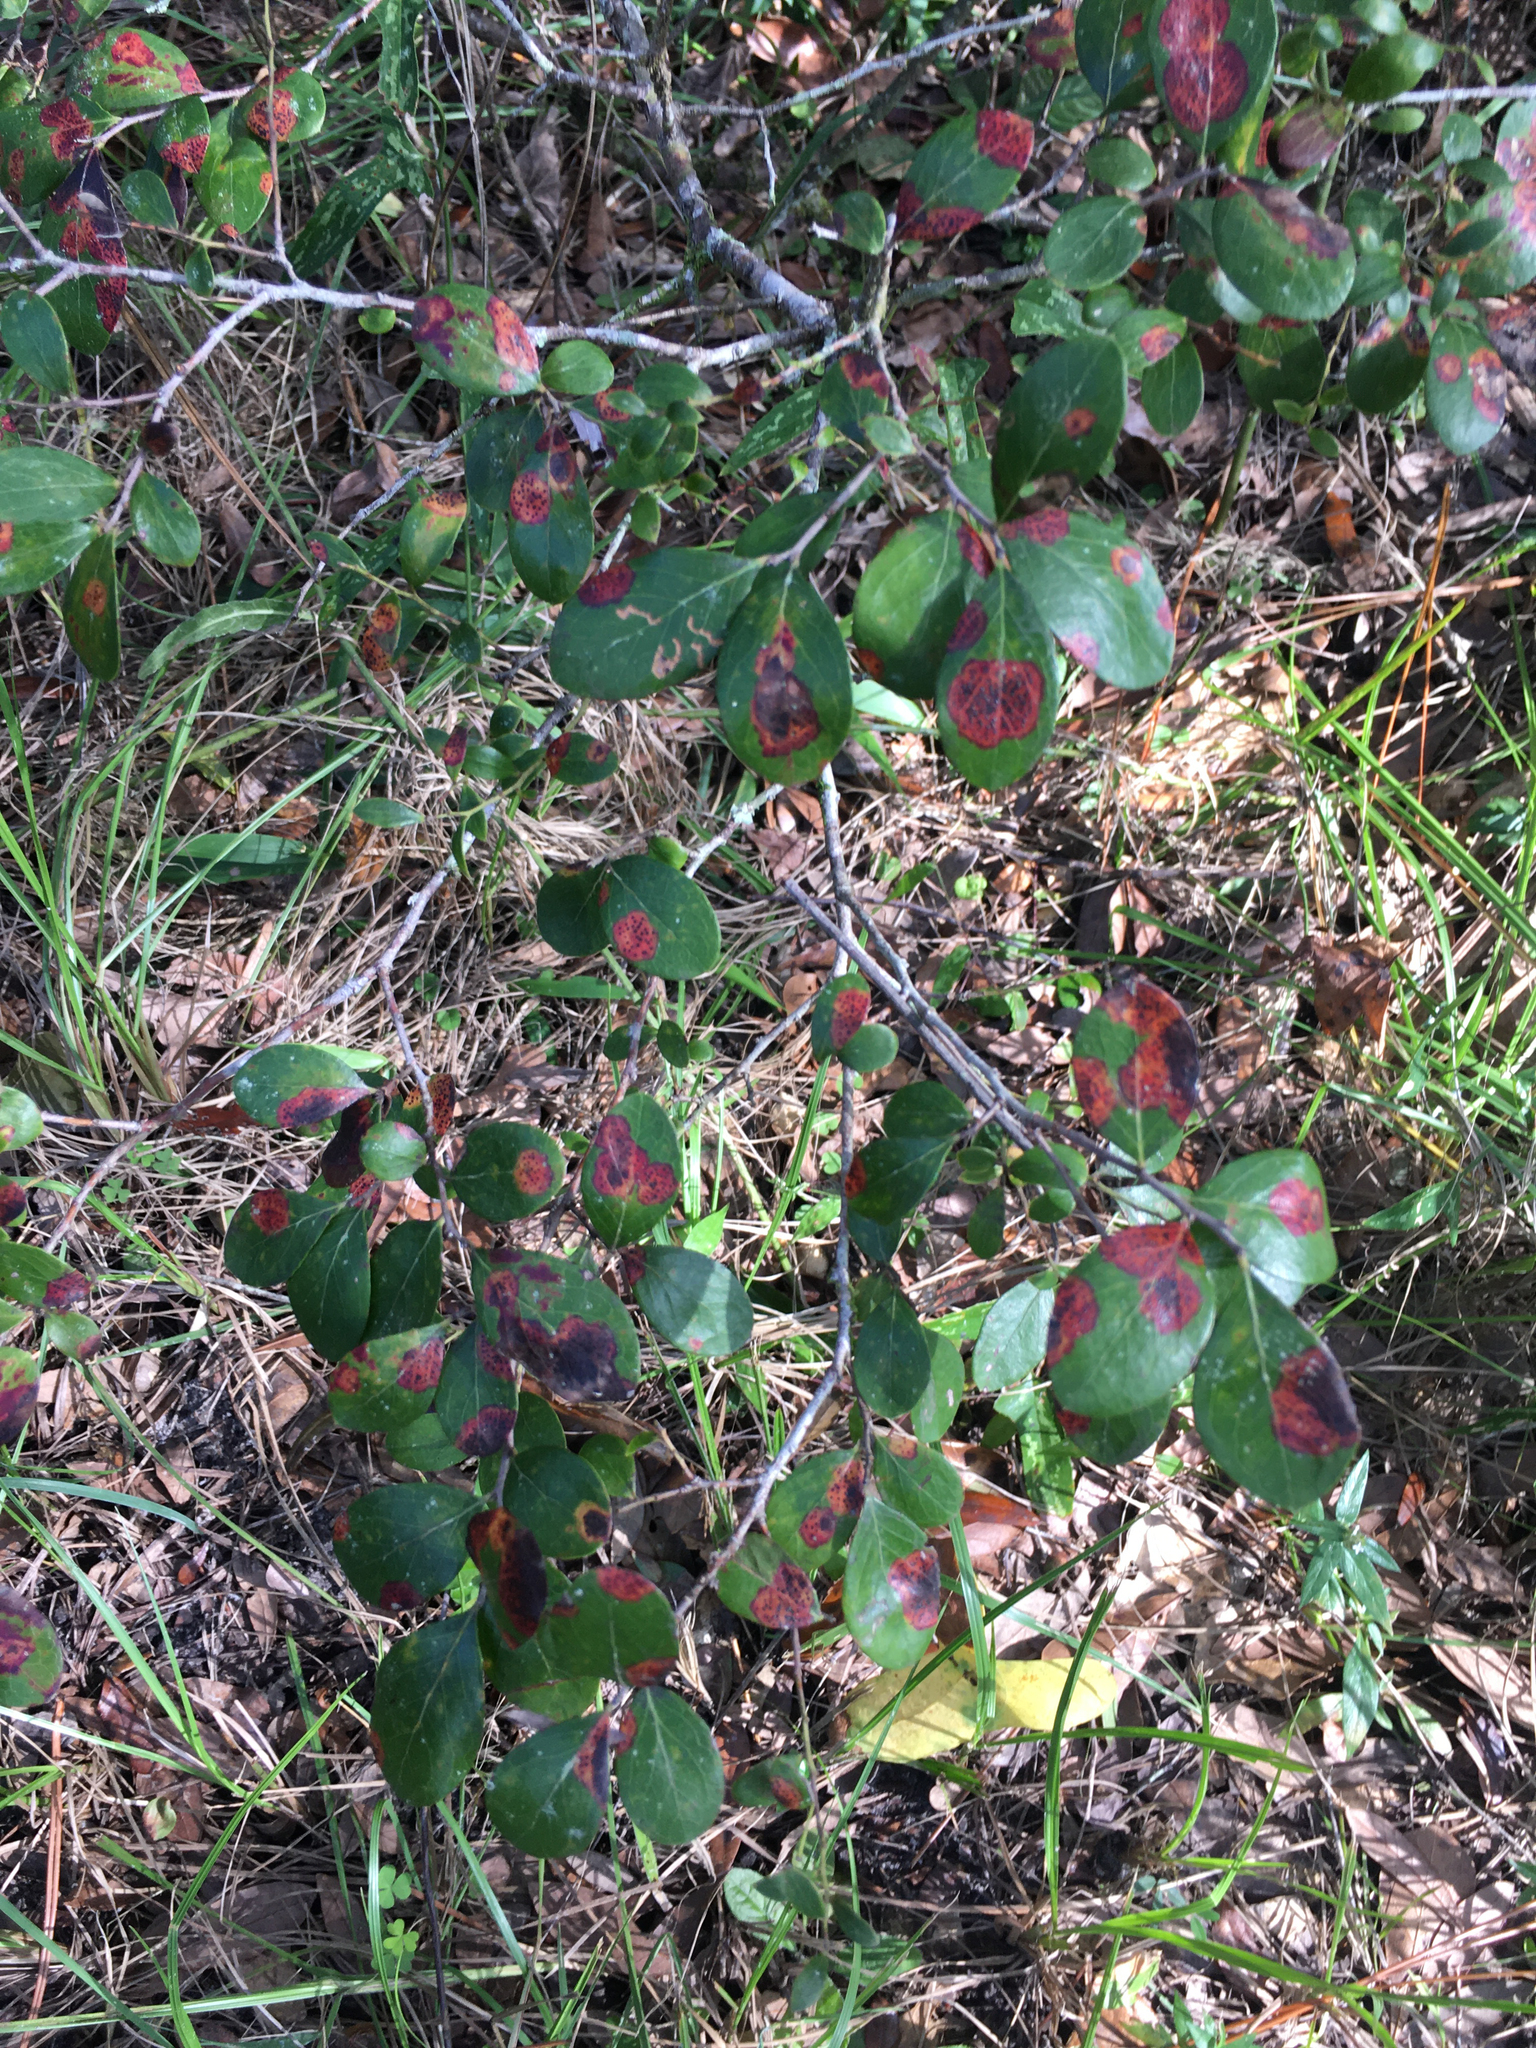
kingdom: Plantae
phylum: Tracheophyta
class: Magnoliopsida
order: Ericales
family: Ericaceae
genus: Vaccinium
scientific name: Vaccinium arboreum
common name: Farkleberry
